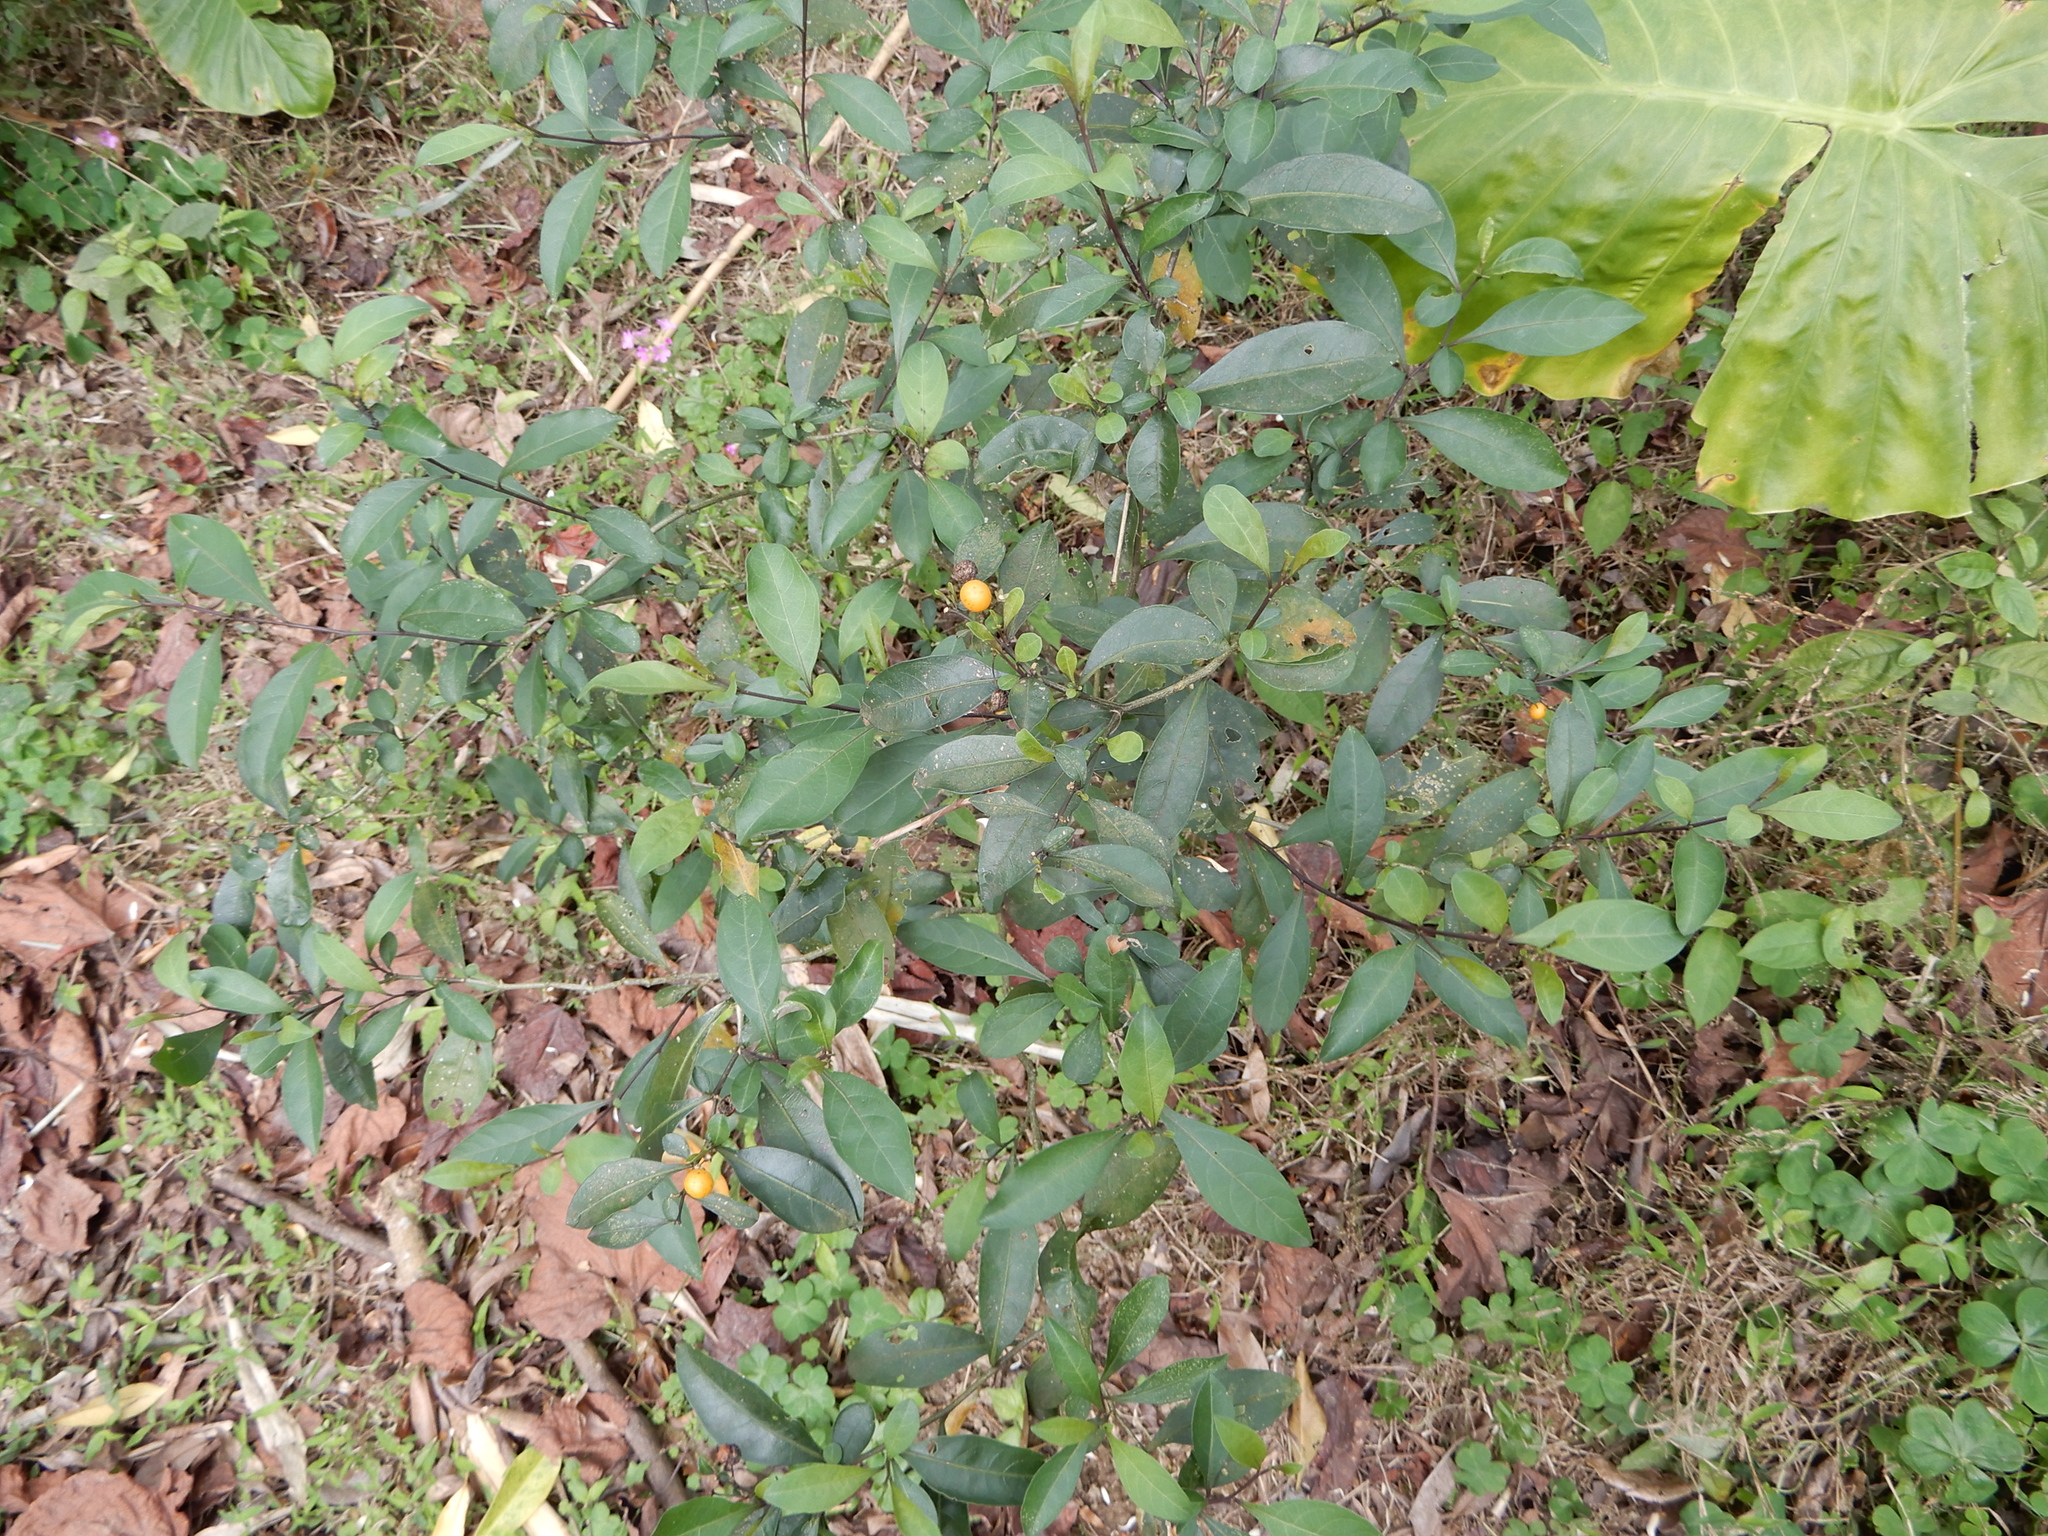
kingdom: Plantae
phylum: Tracheophyta
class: Magnoliopsida
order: Solanales
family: Solanaceae
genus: Solanum
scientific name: Solanum diphyllum
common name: Twoleaf nightshade
